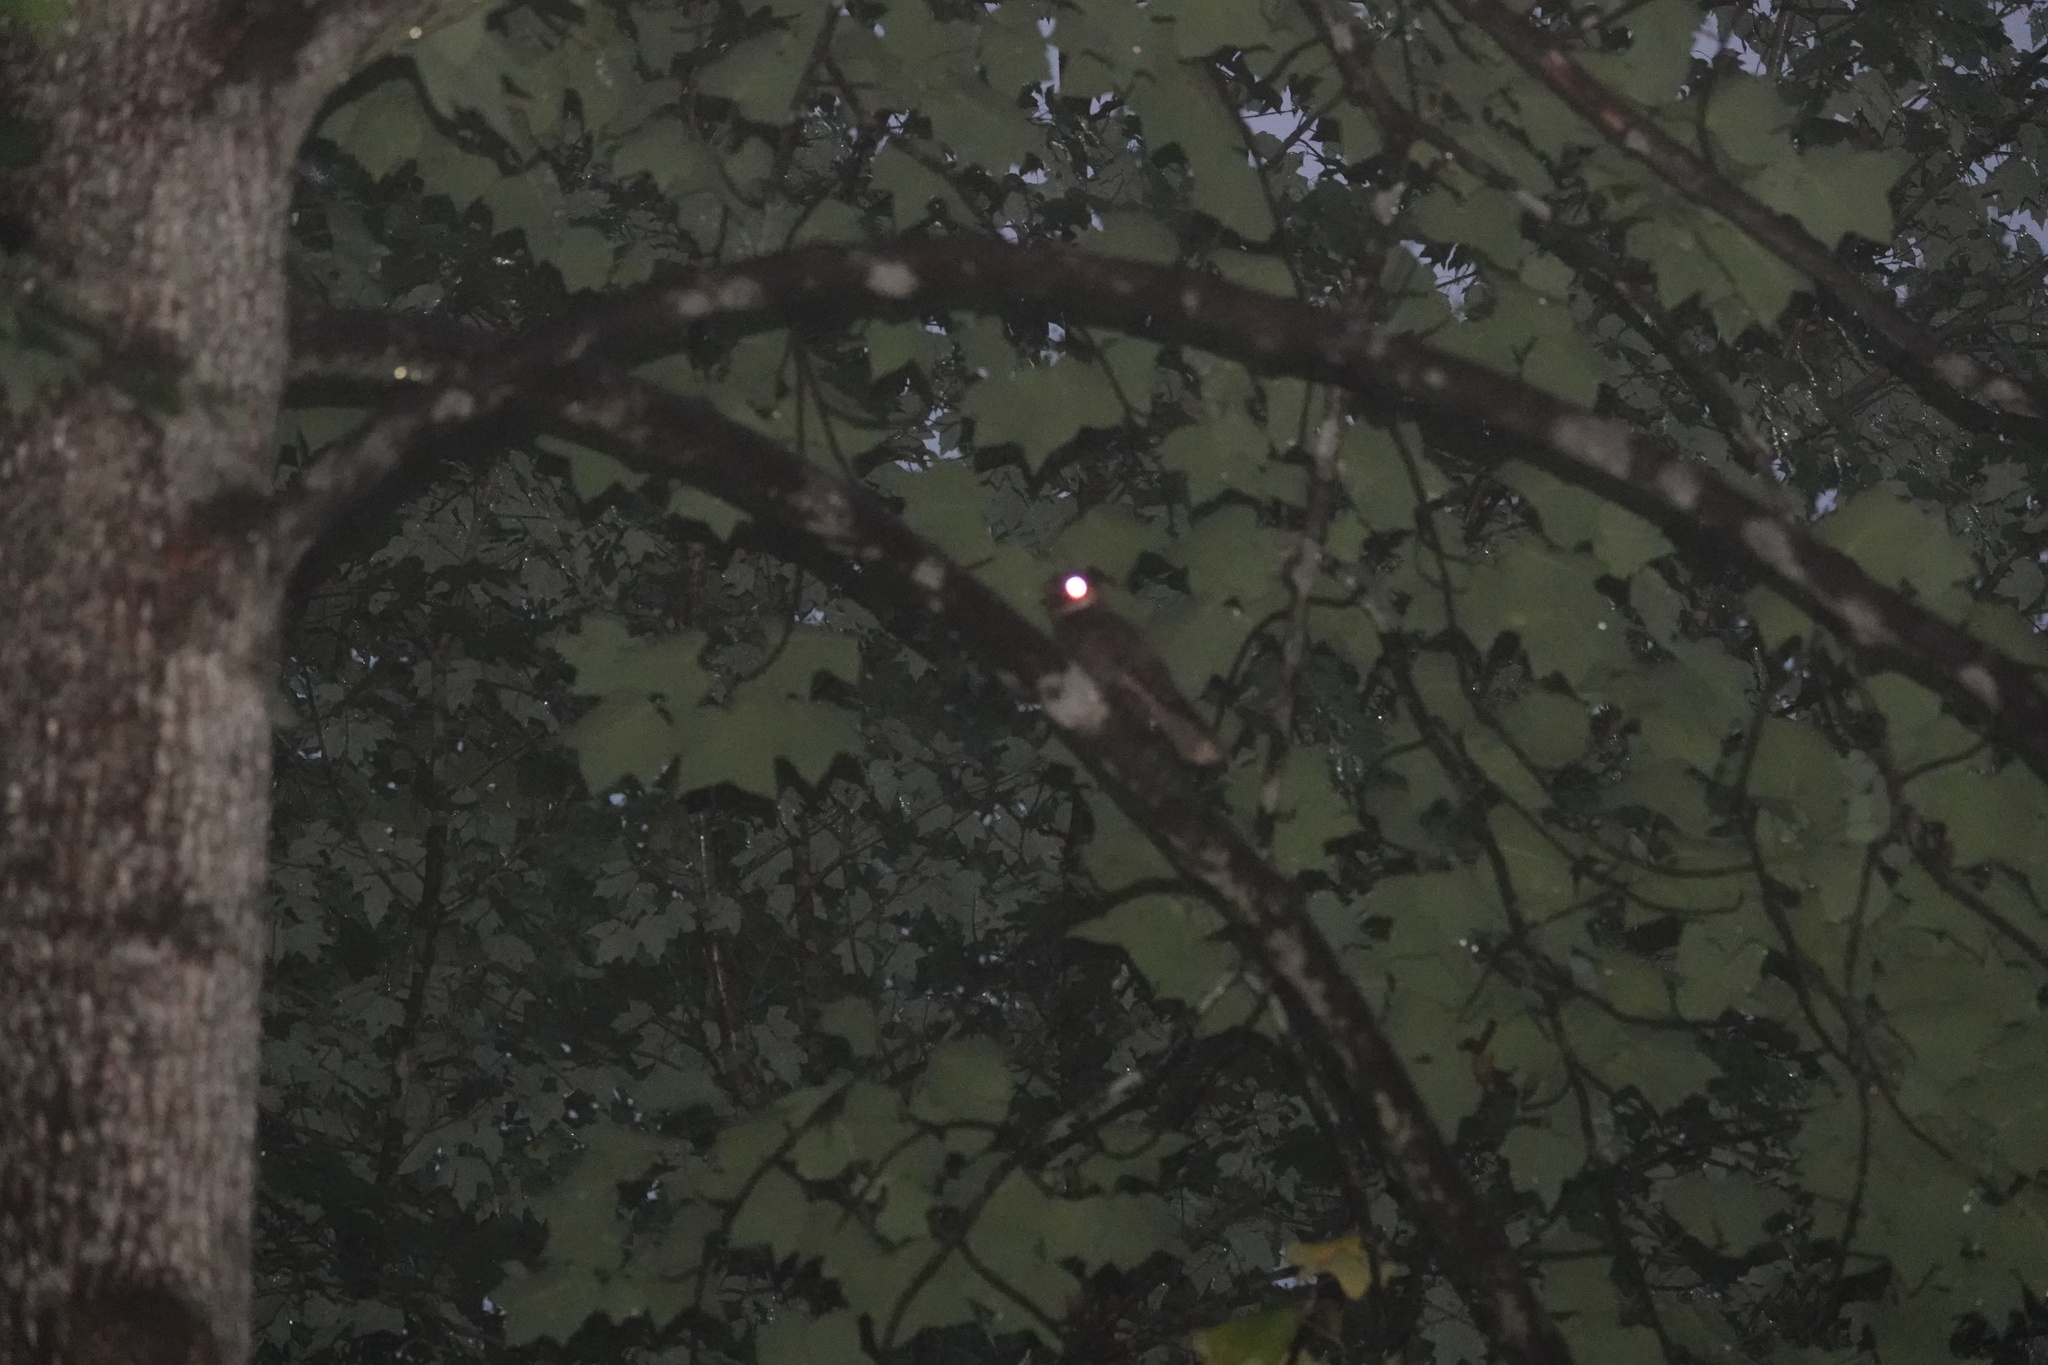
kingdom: Animalia
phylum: Chordata
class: Aves
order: Caprimulgiformes
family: Caprimulgidae
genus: Antrostomus
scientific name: Antrostomus vociferus
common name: Eastern whip-poor-will
